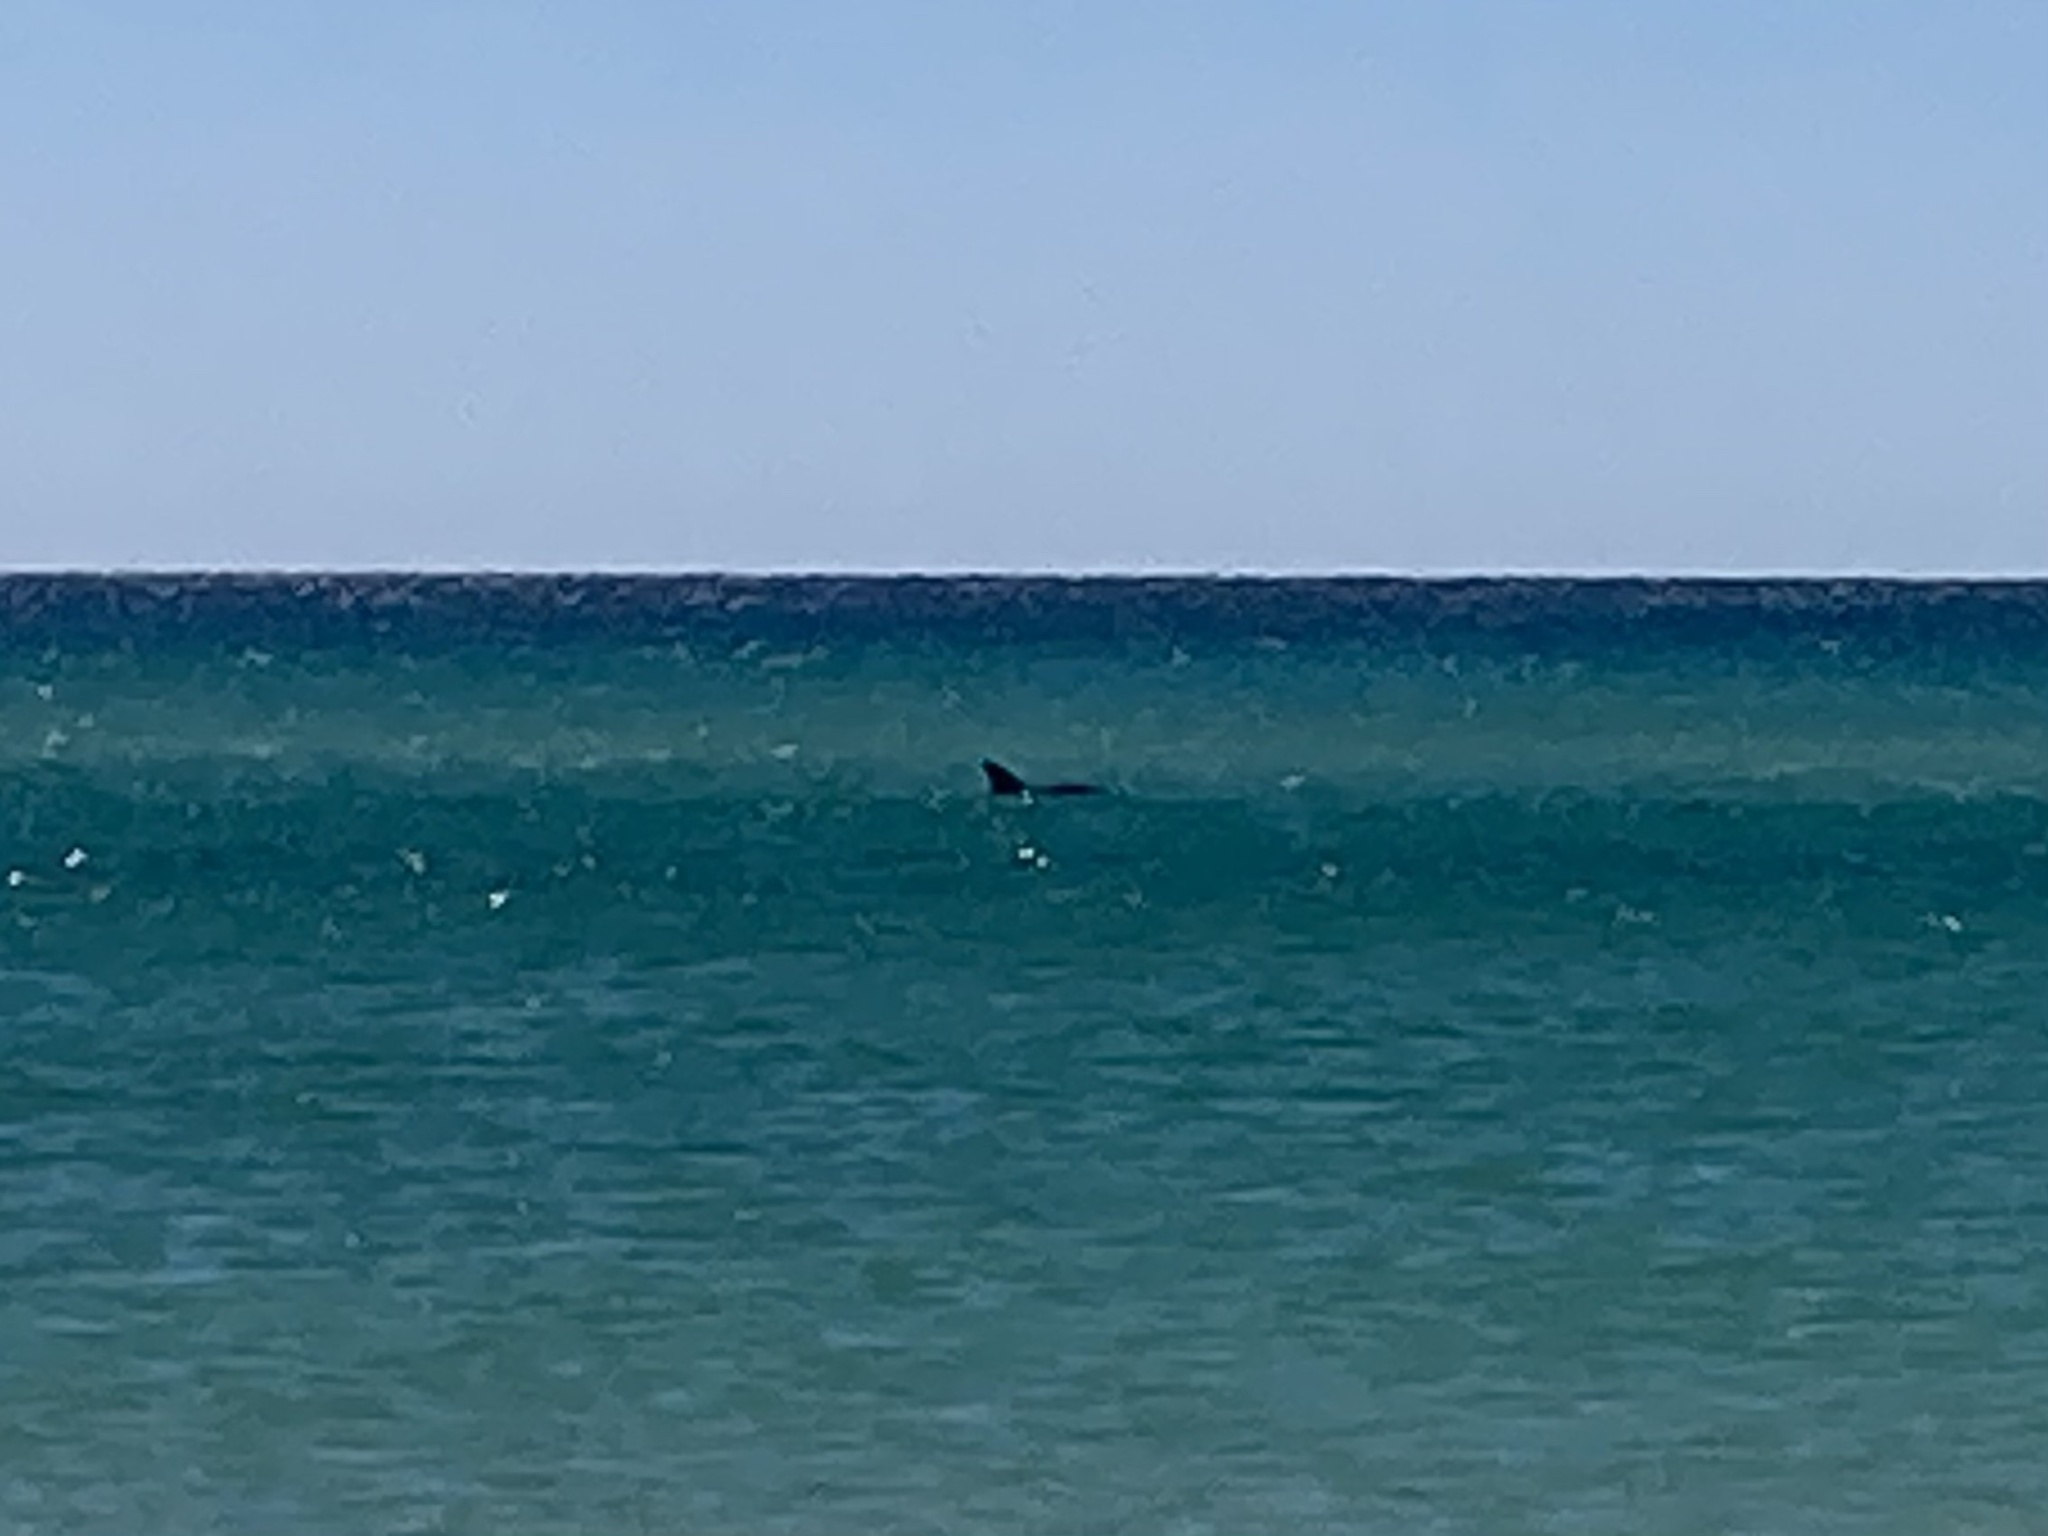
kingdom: Animalia
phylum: Chordata
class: Mammalia
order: Cetacea
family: Delphinidae
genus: Tursiops
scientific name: Tursiops truncatus
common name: Bottlenose dolphin
